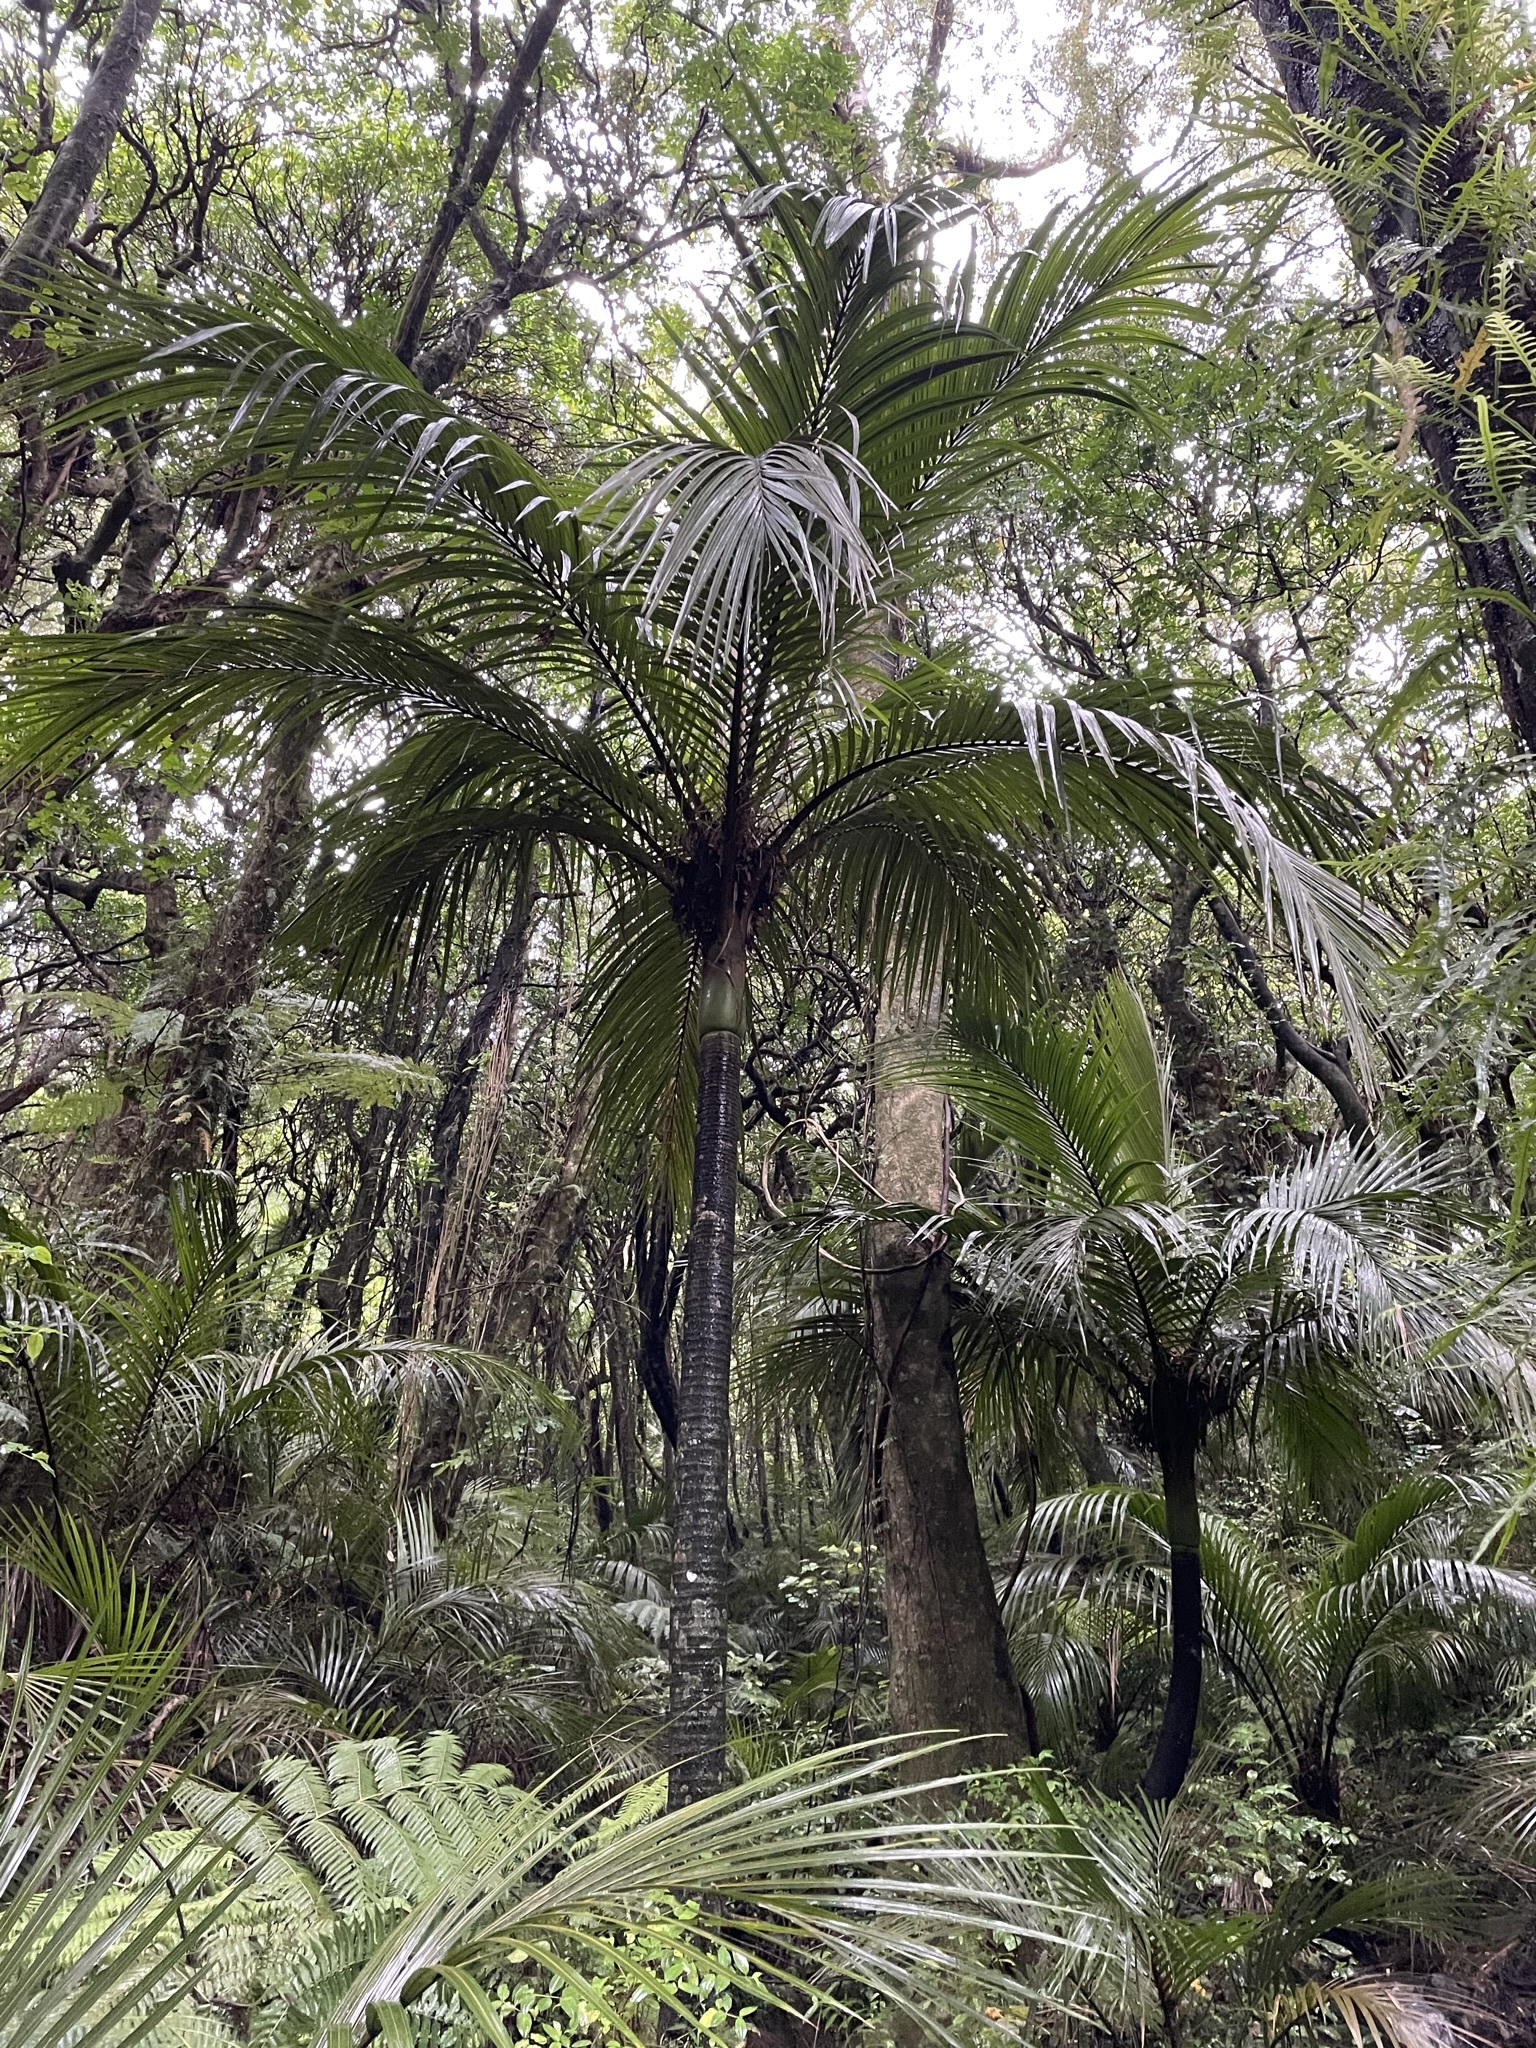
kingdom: Plantae
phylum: Tracheophyta
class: Liliopsida
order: Arecales
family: Arecaceae
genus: Rhopalostylis
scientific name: Rhopalostylis sapida
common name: Feather-duster palm
